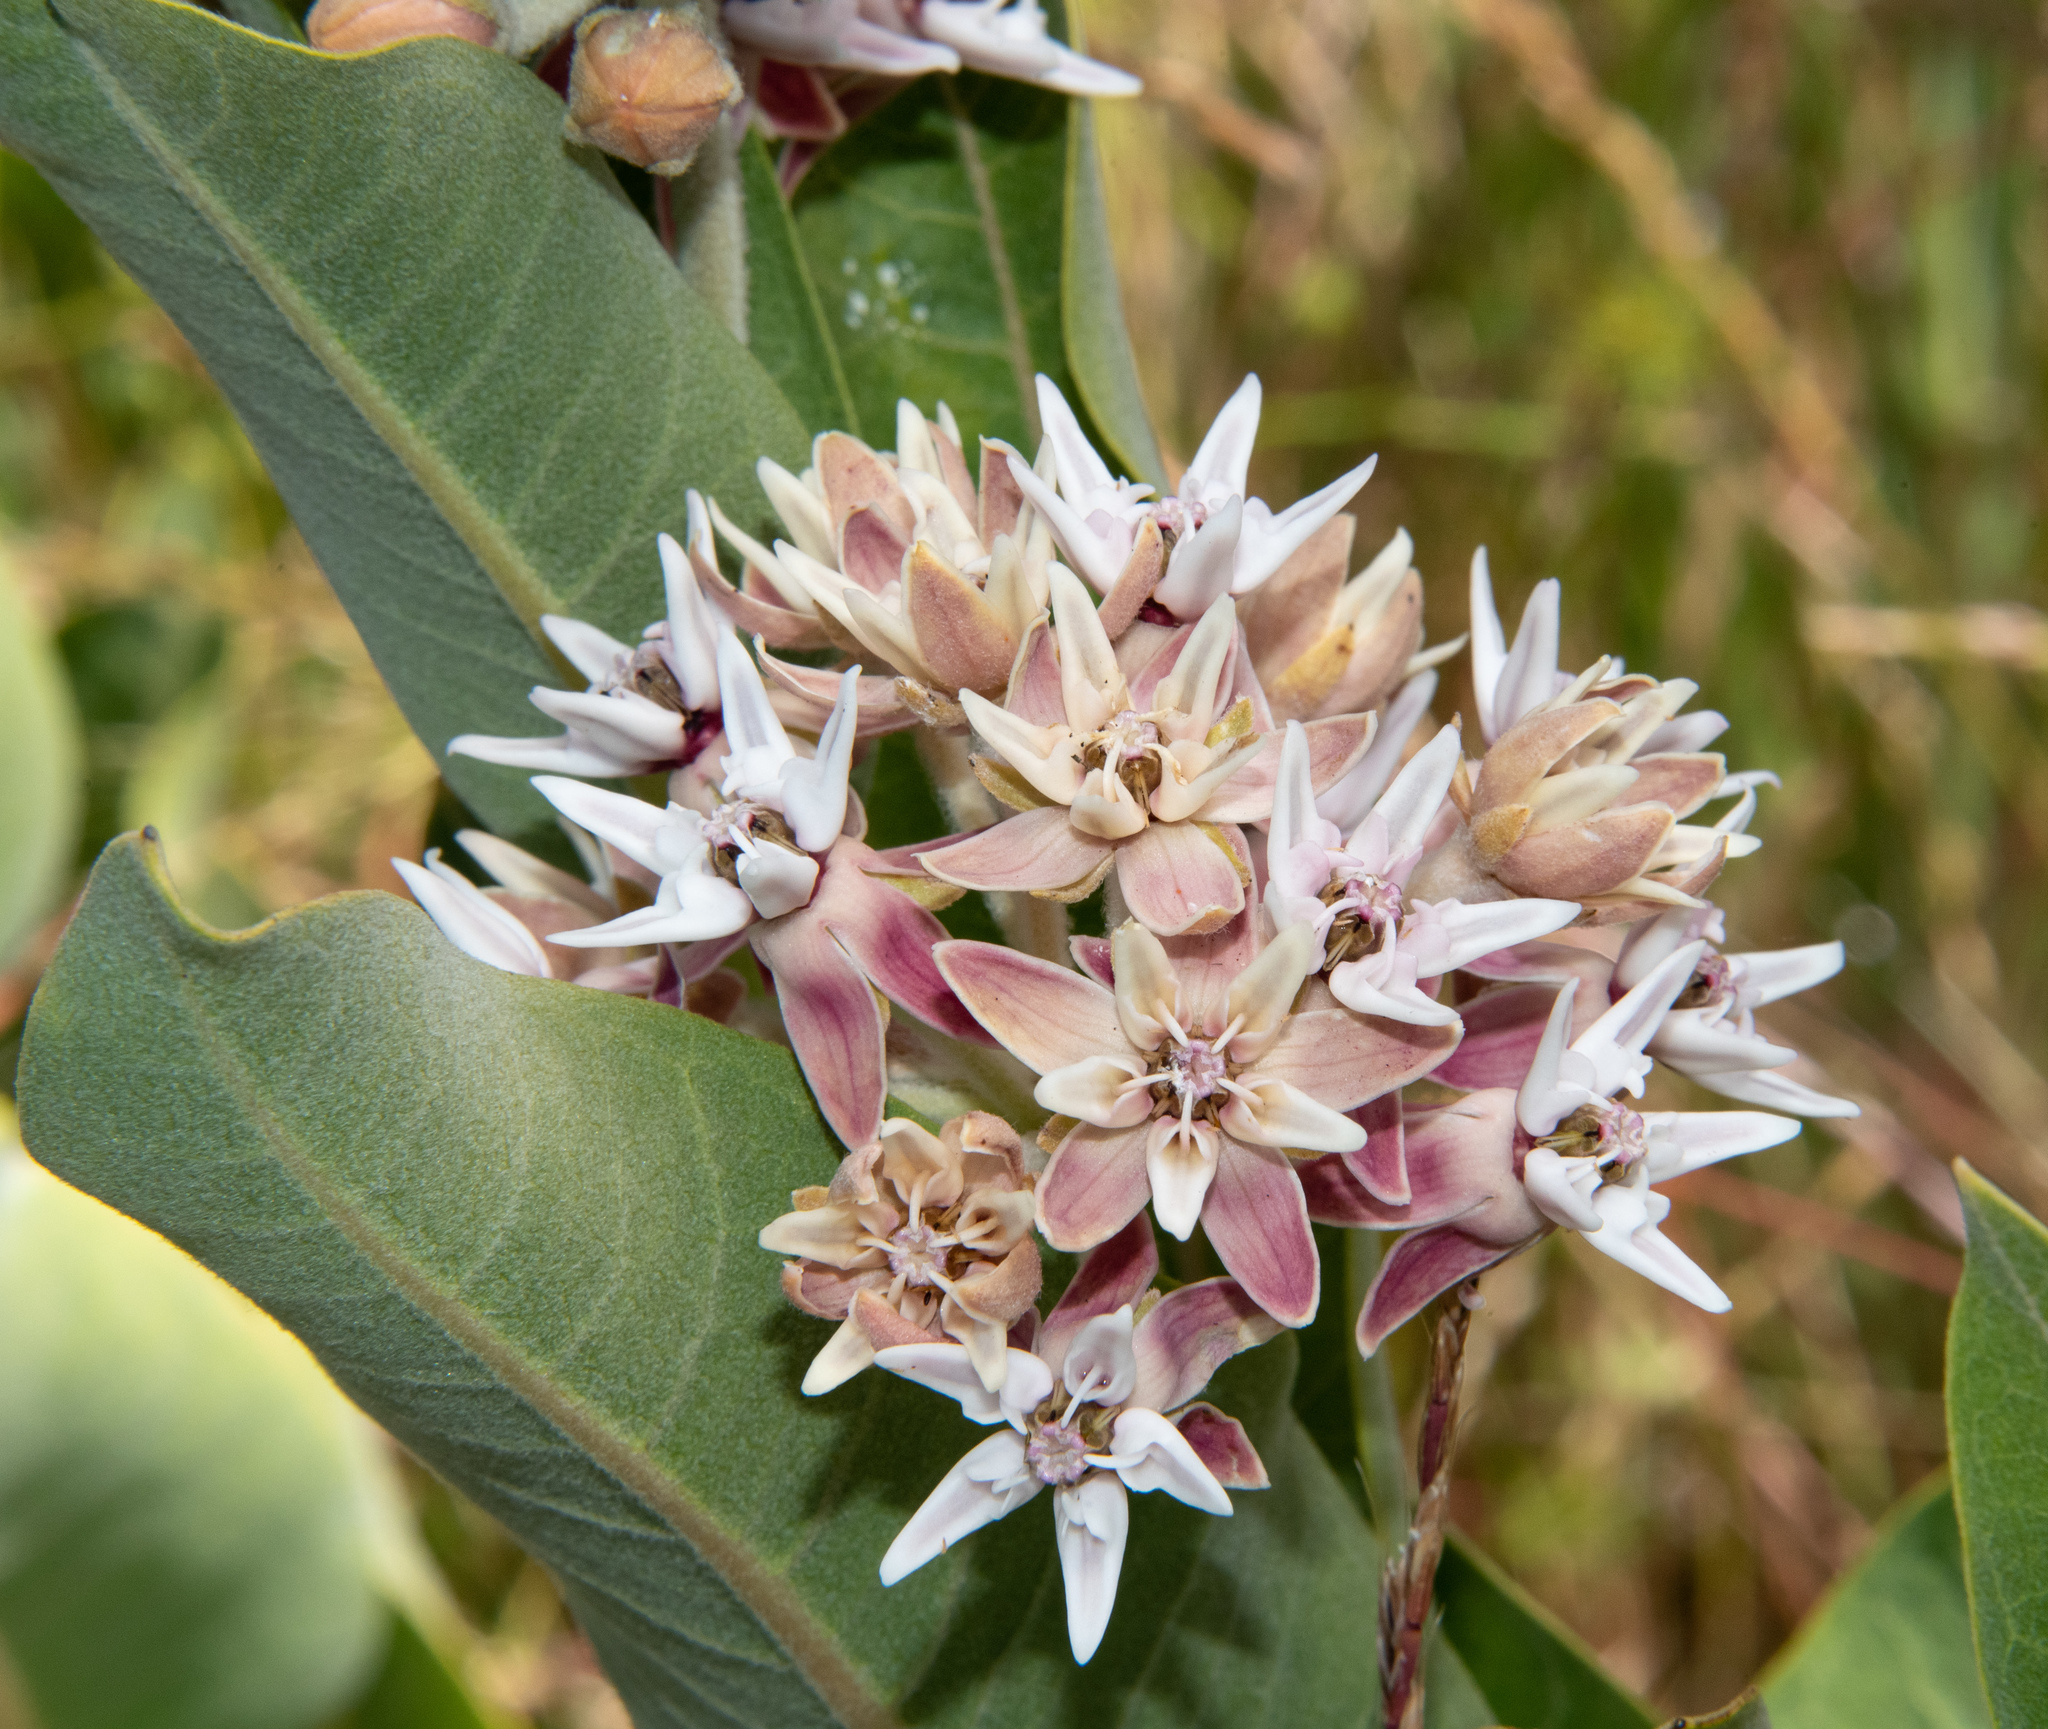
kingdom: Plantae
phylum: Tracheophyta
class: Magnoliopsida
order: Gentianales
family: Apocynaceae
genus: Asclepias
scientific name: Asclepias speciosa
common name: Showy milkweed
